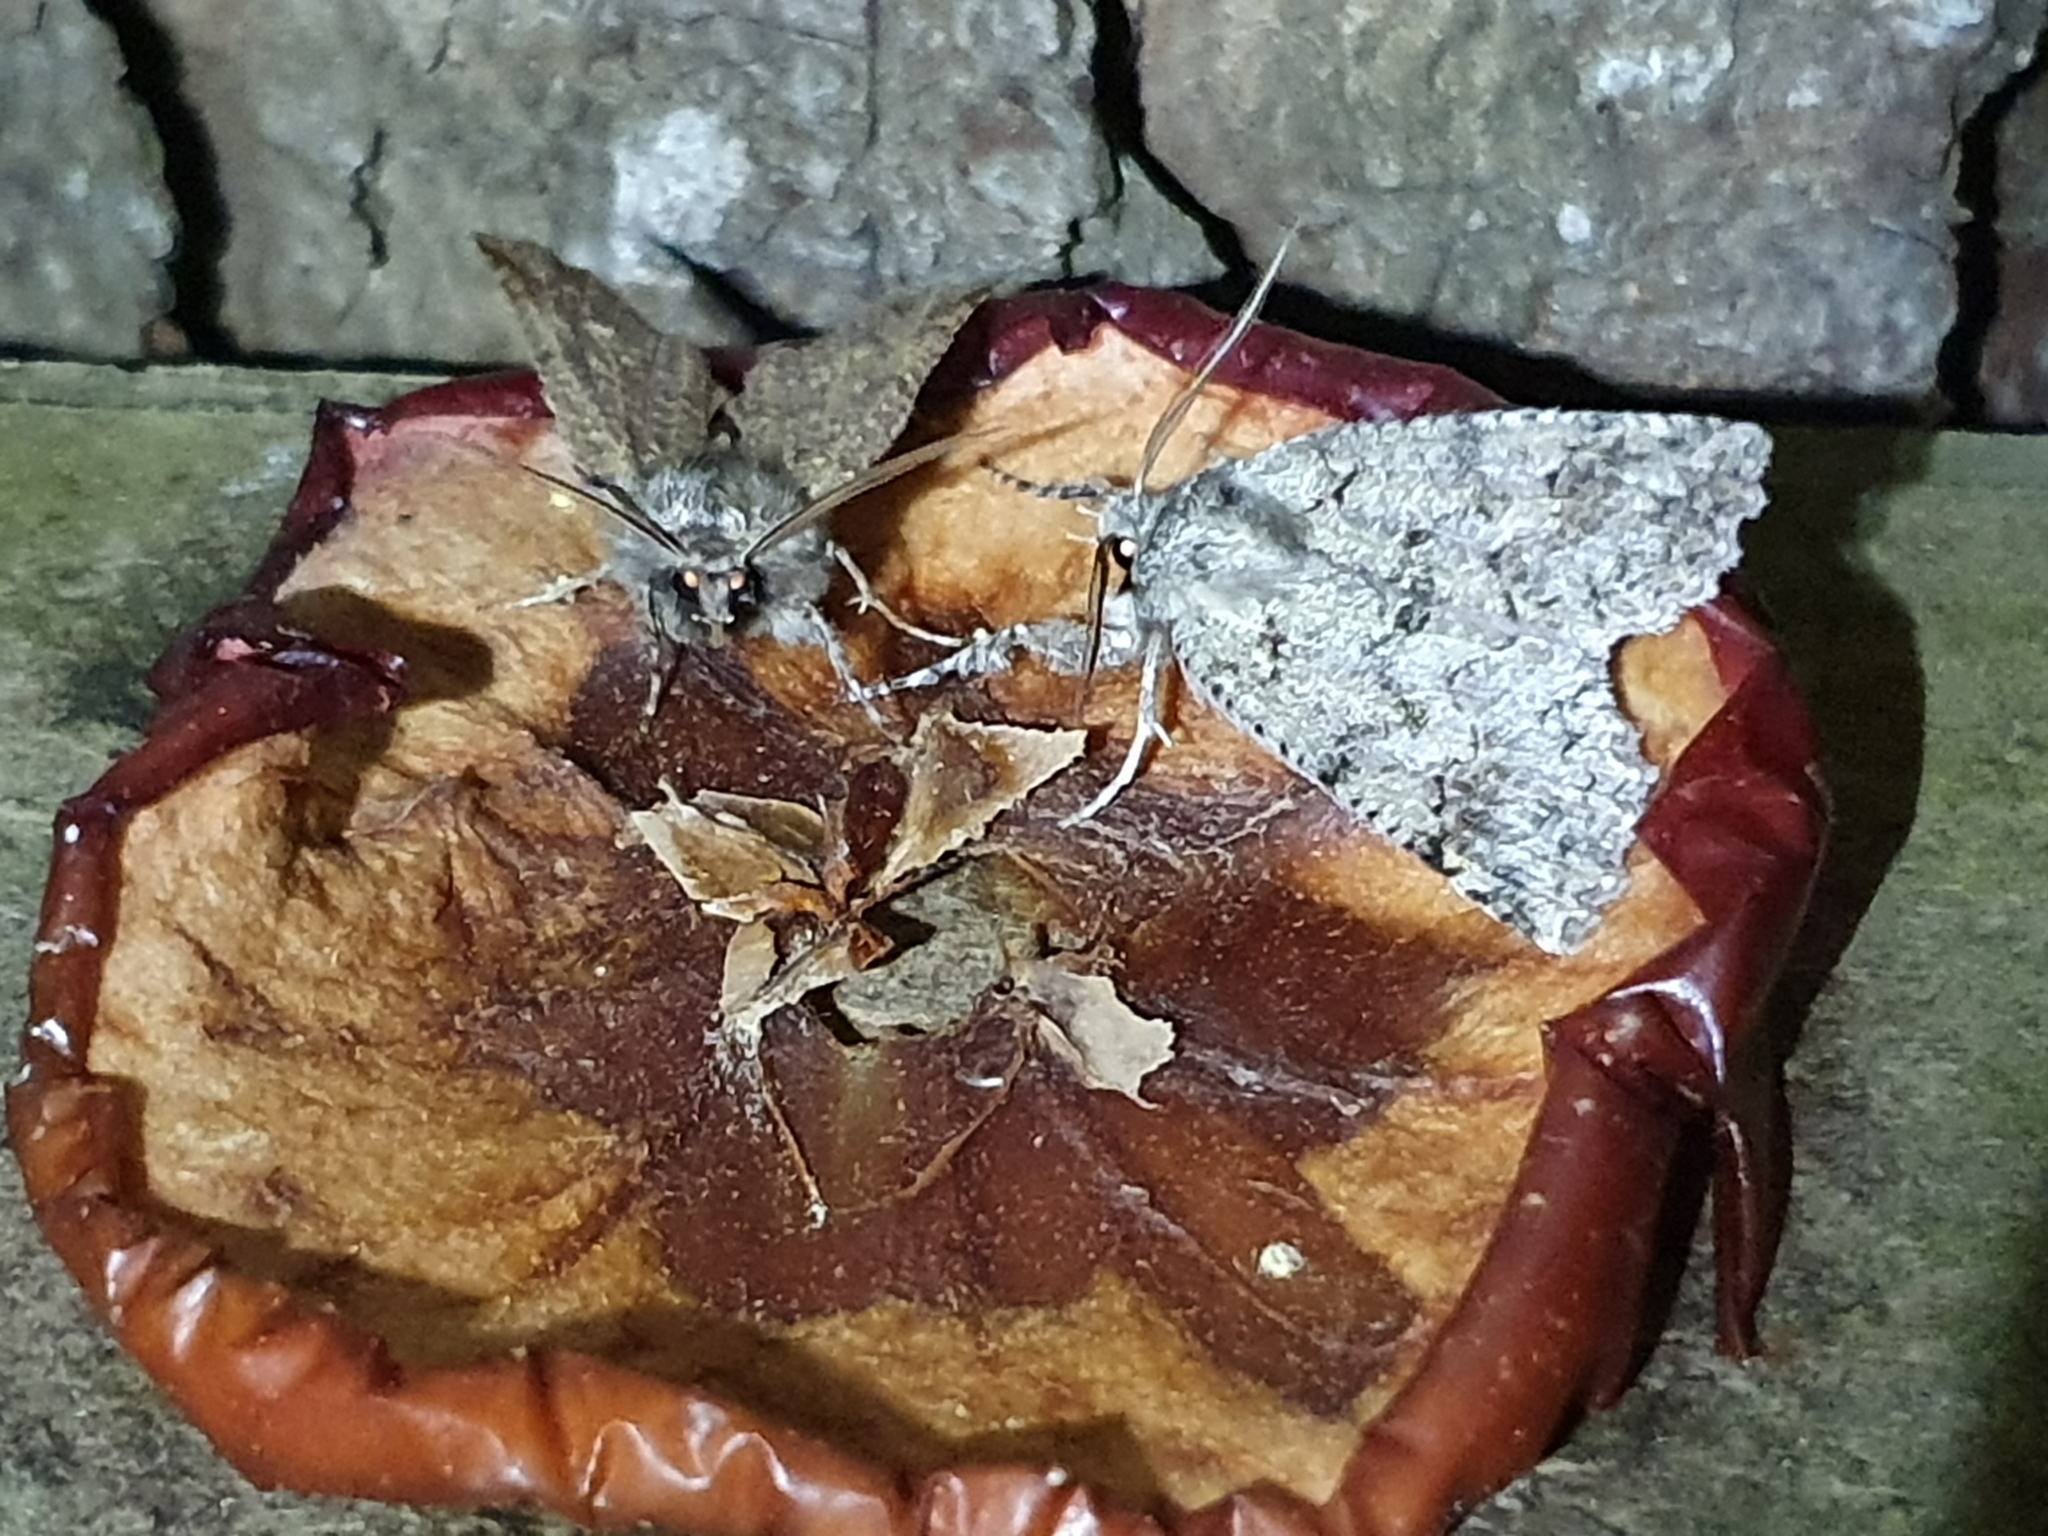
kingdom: Animalia
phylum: Arthropoda
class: Insecta
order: Lepidoptera
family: Geometridae
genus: Declana
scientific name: Declana floccosa
